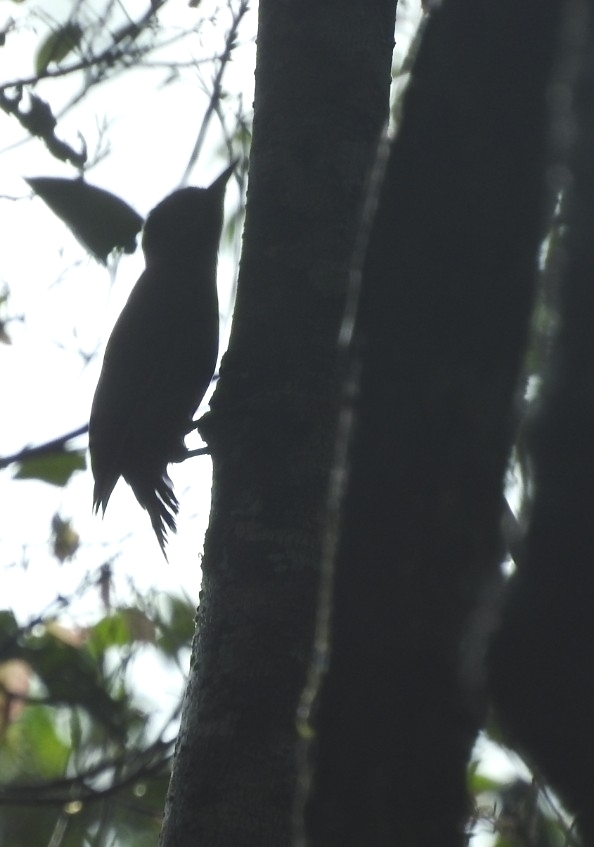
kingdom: Animalia
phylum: Chordata
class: Aves
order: Piciformes
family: Picidae
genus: Colaptes
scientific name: Colaptes rubiginosus
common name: Golden-olive woodpecker
